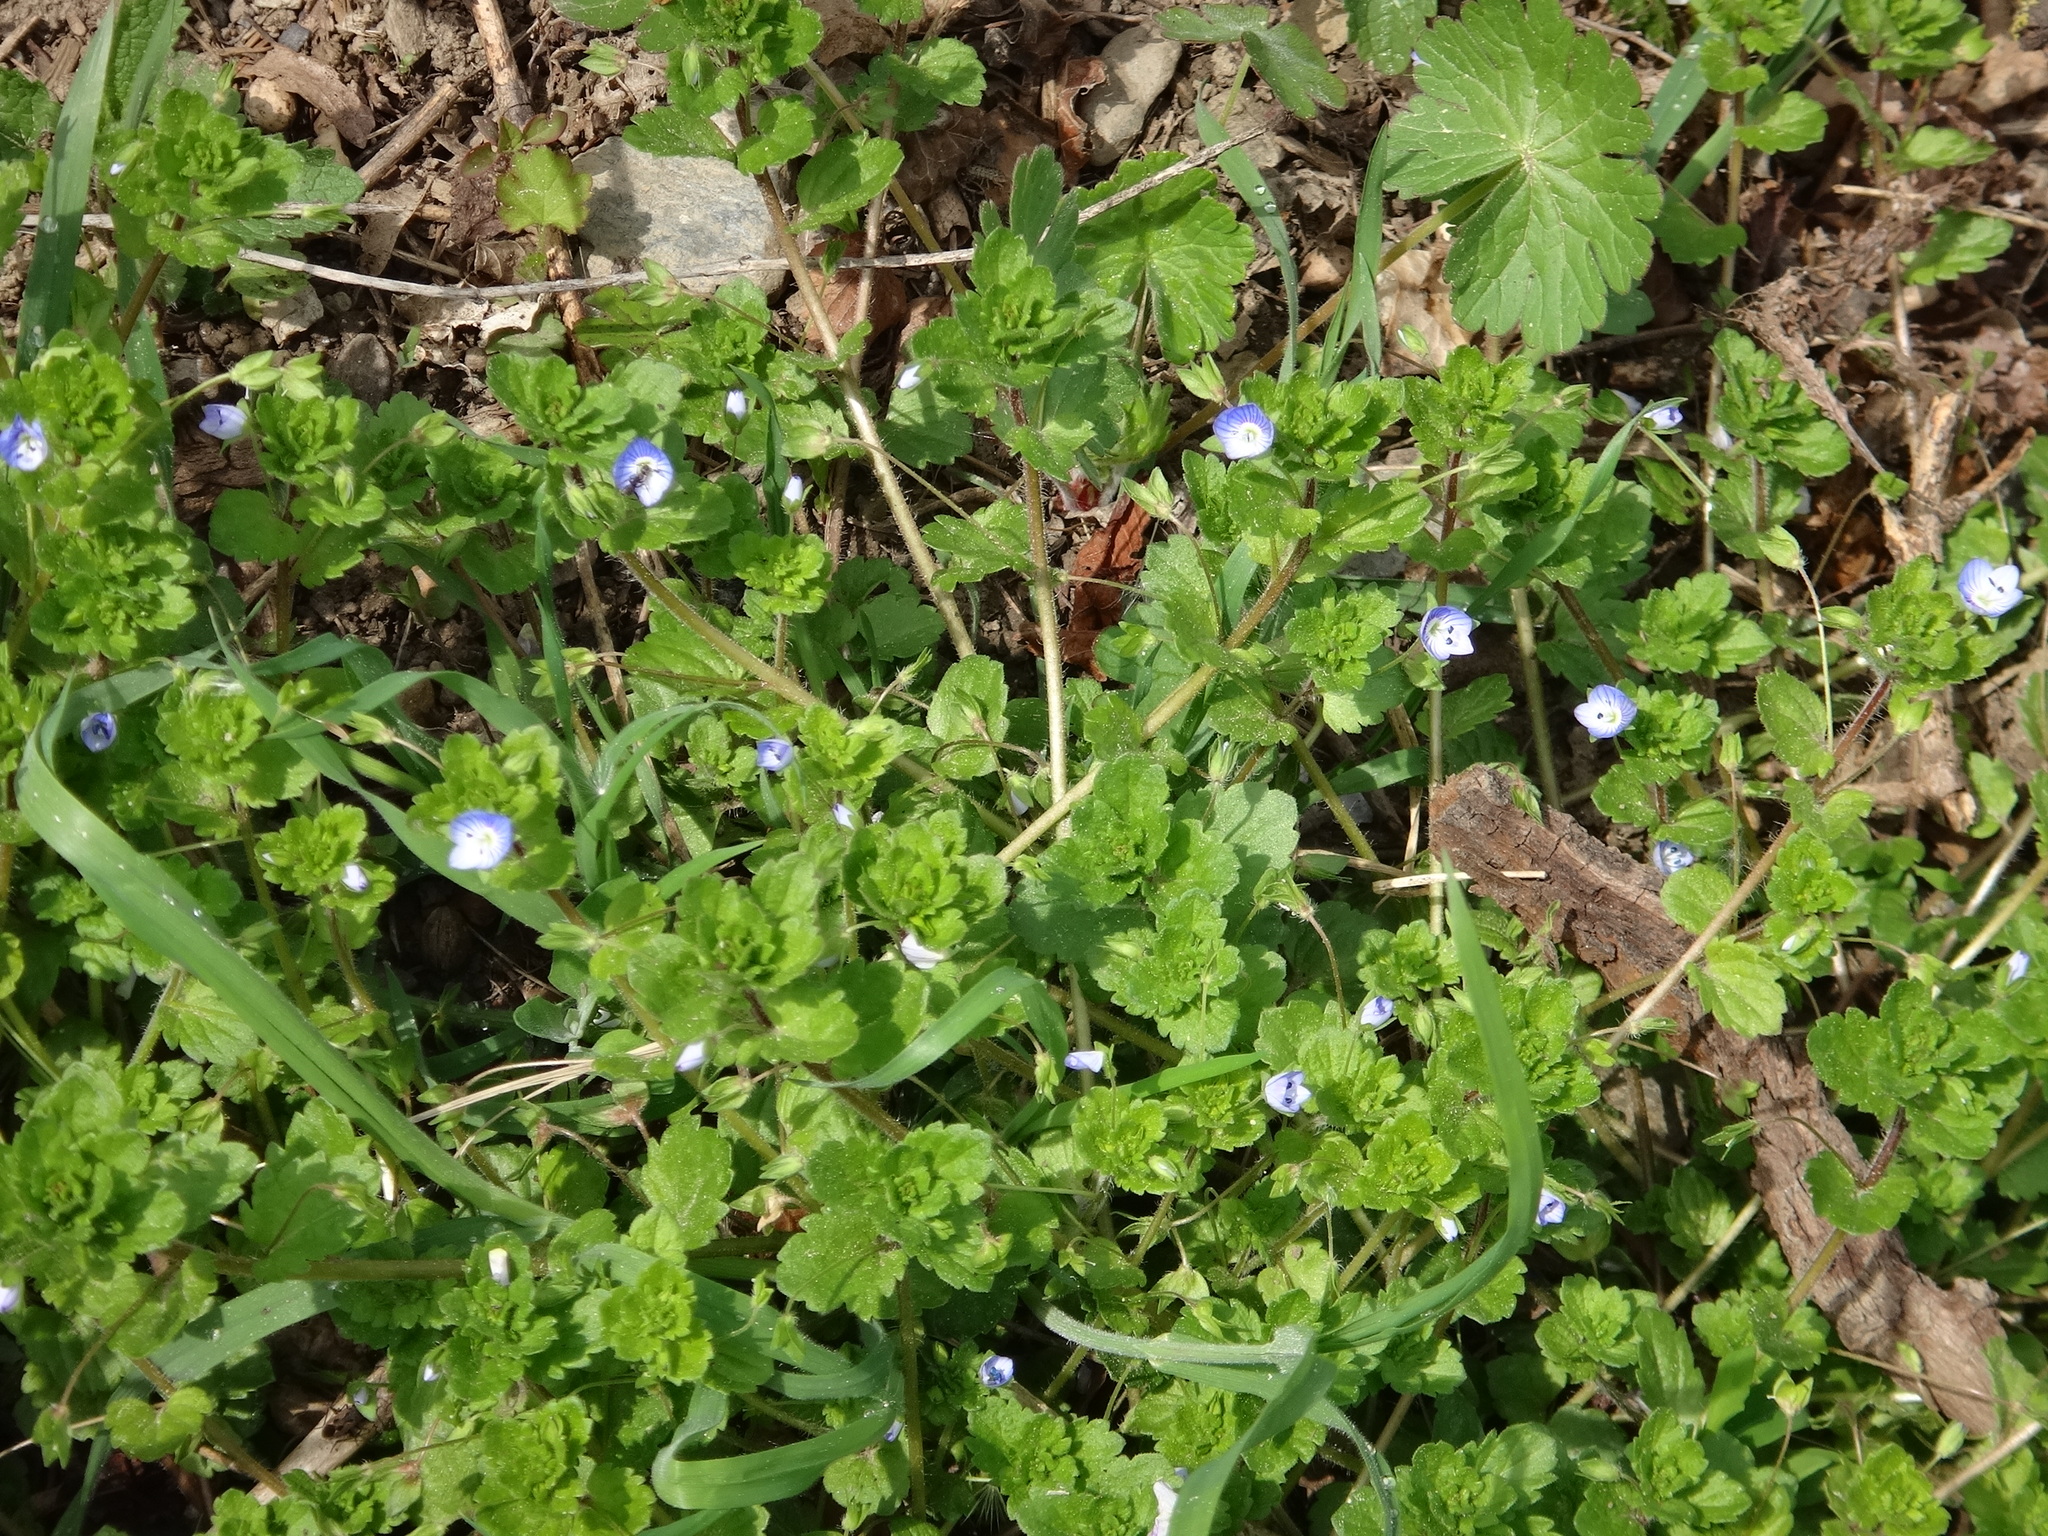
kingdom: Plantae
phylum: Tracheophyta
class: Magnoliopsida
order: Lamiales
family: Plantaginaceae
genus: Veronica
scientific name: Veronica persica
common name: Common field-speedwell
